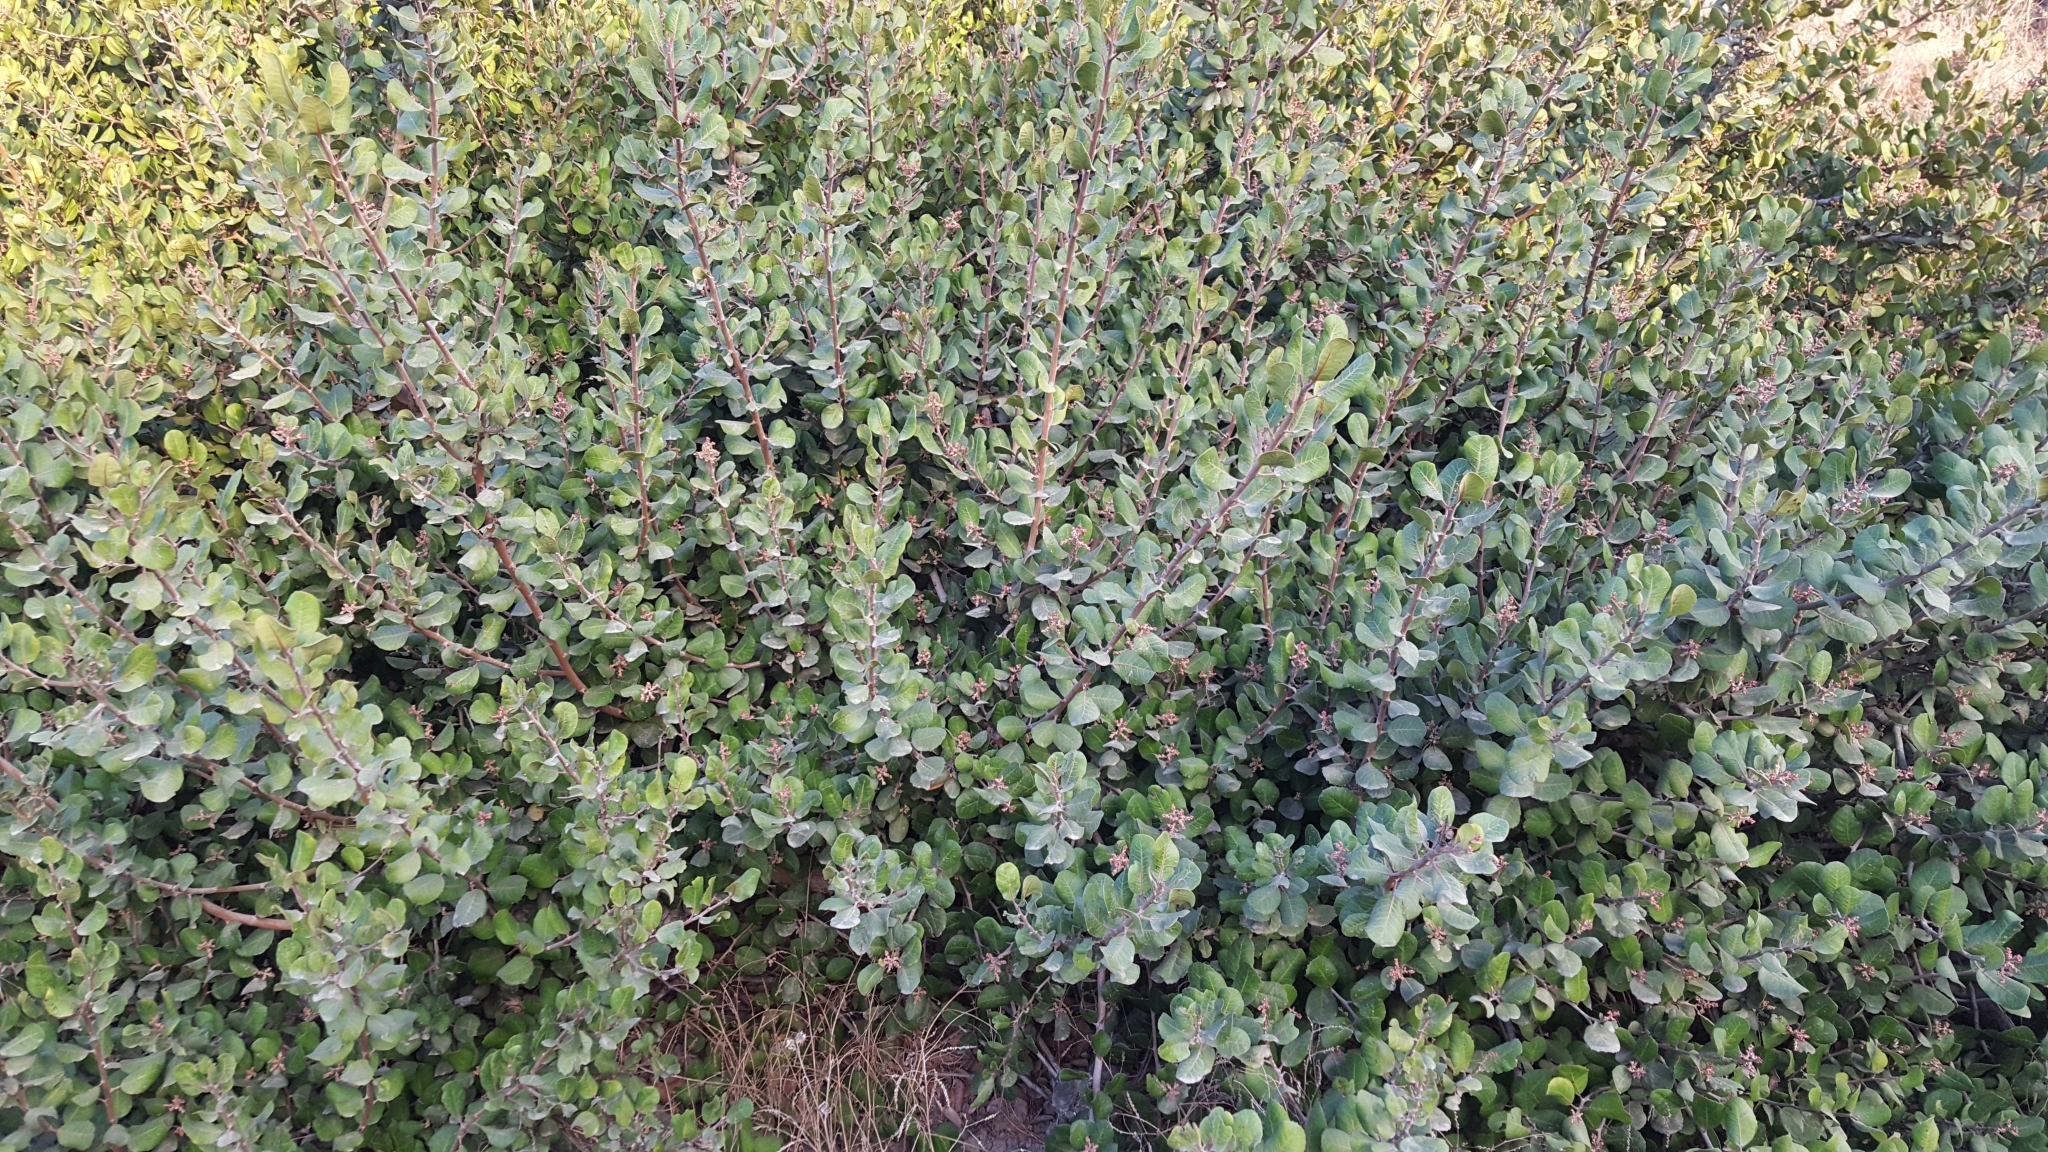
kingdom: Plantae
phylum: Tracheophyta
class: Magnoliopsida
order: Sapindales
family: Anacardiaceae
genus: Rhus
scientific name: Rhus integrifolia
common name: Lemonade sumac
